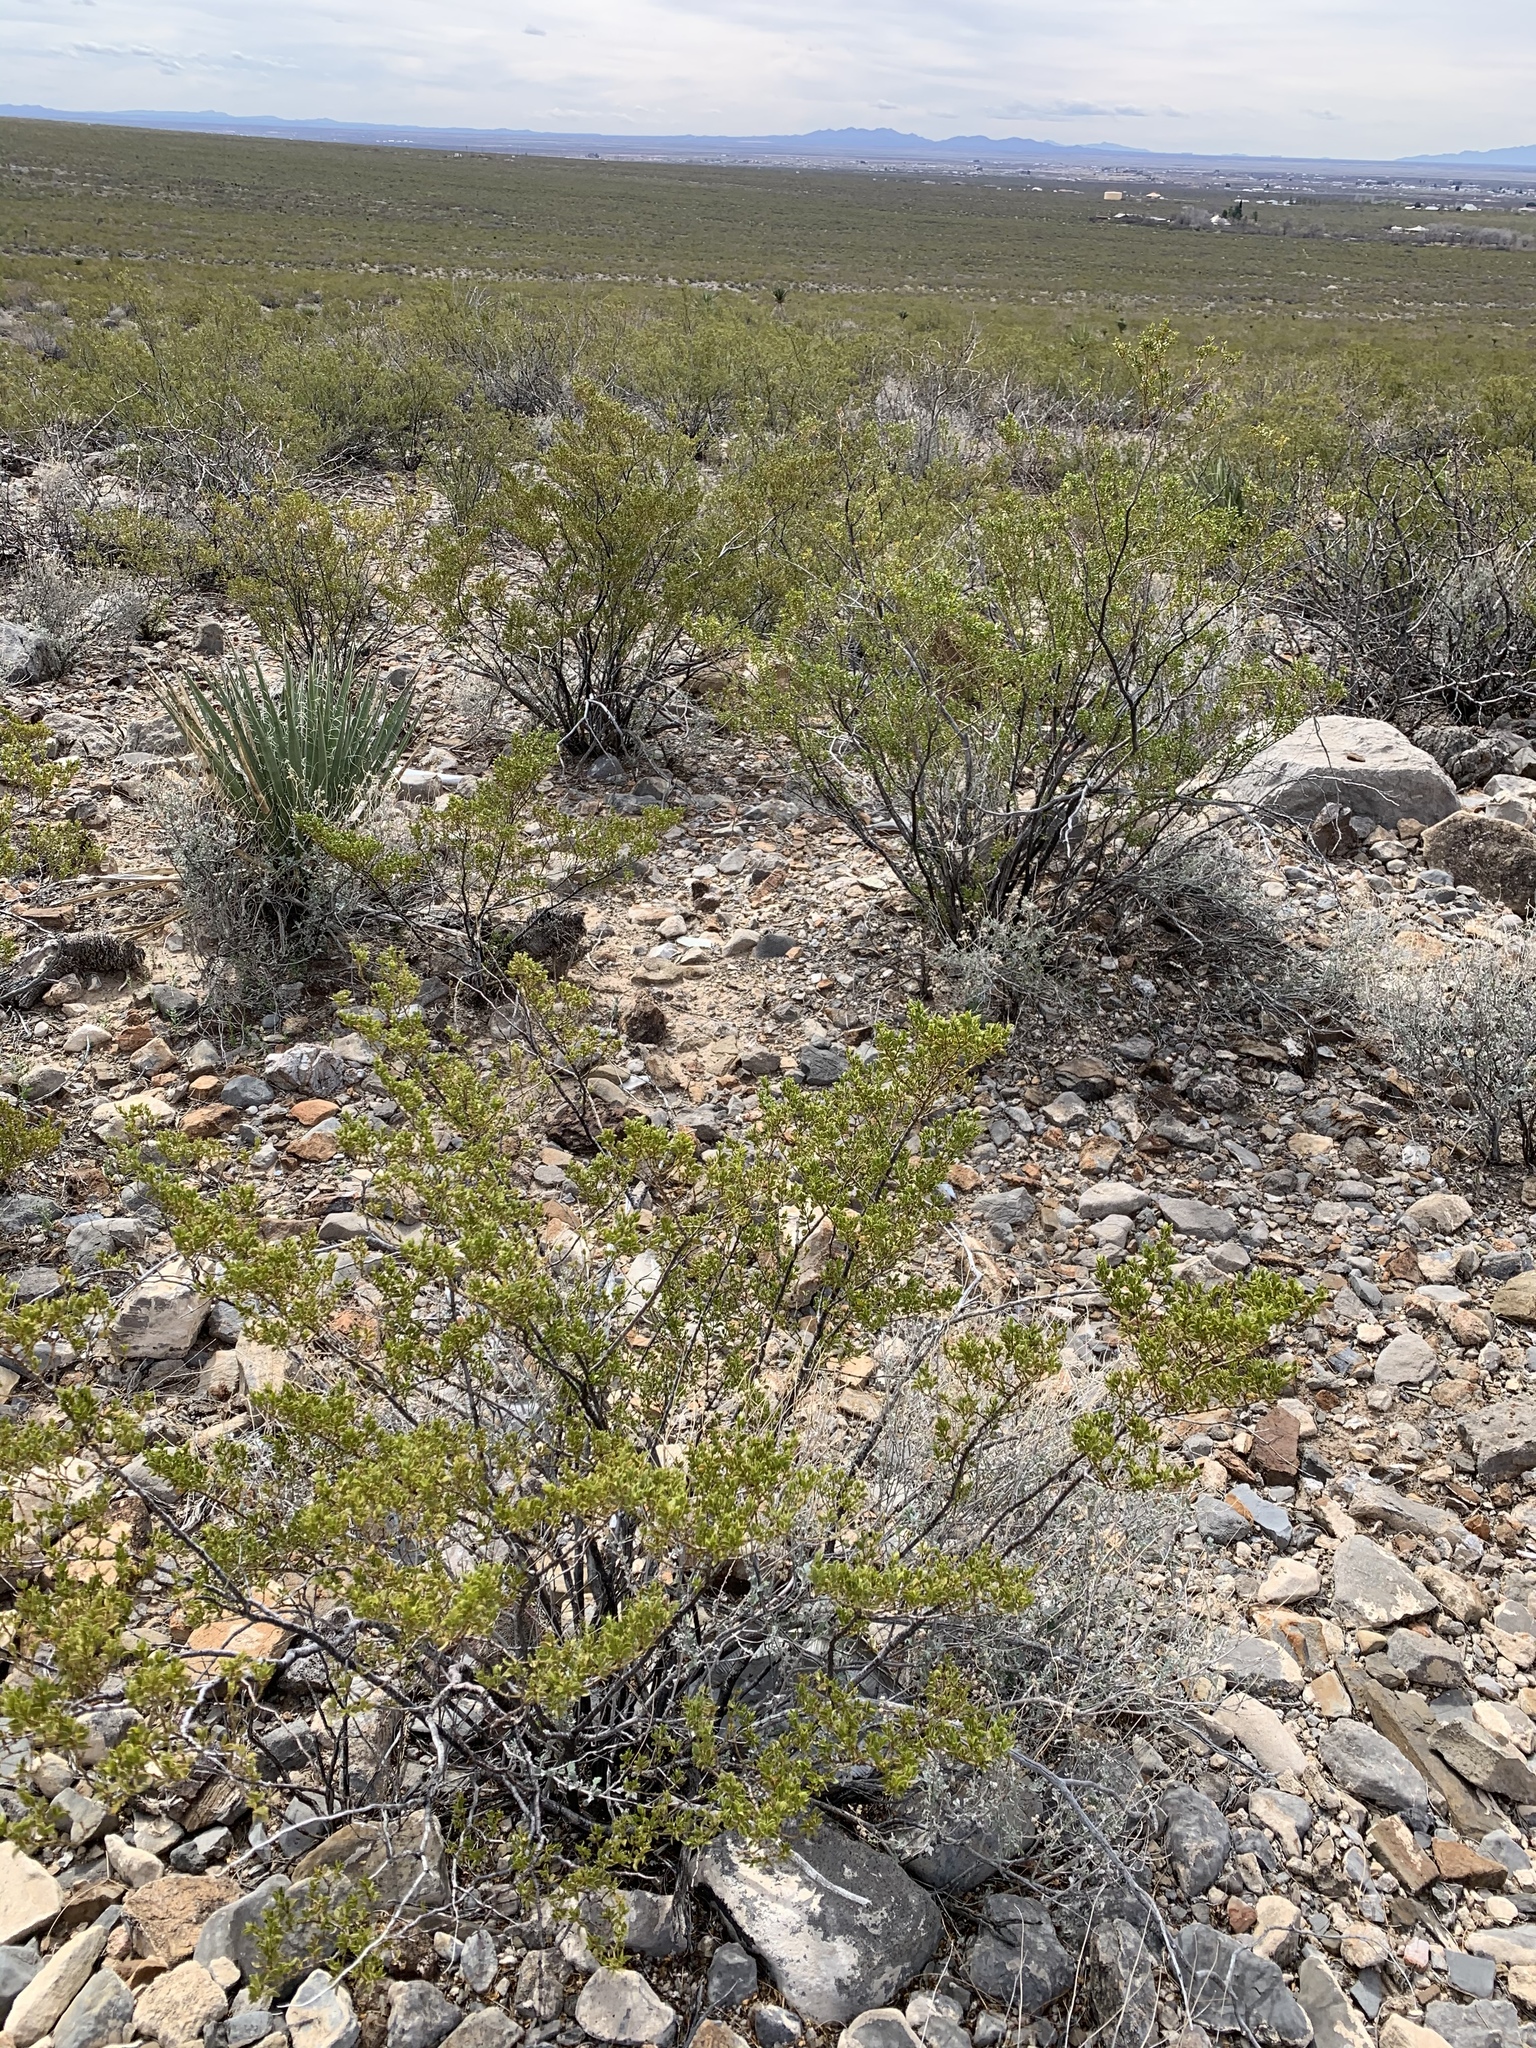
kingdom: Plantae
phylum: Tracheophyta
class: Magnoliopsida
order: Zygophyllales
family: Zygophyllaceae
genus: Larrea
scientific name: Larrea tridentata
